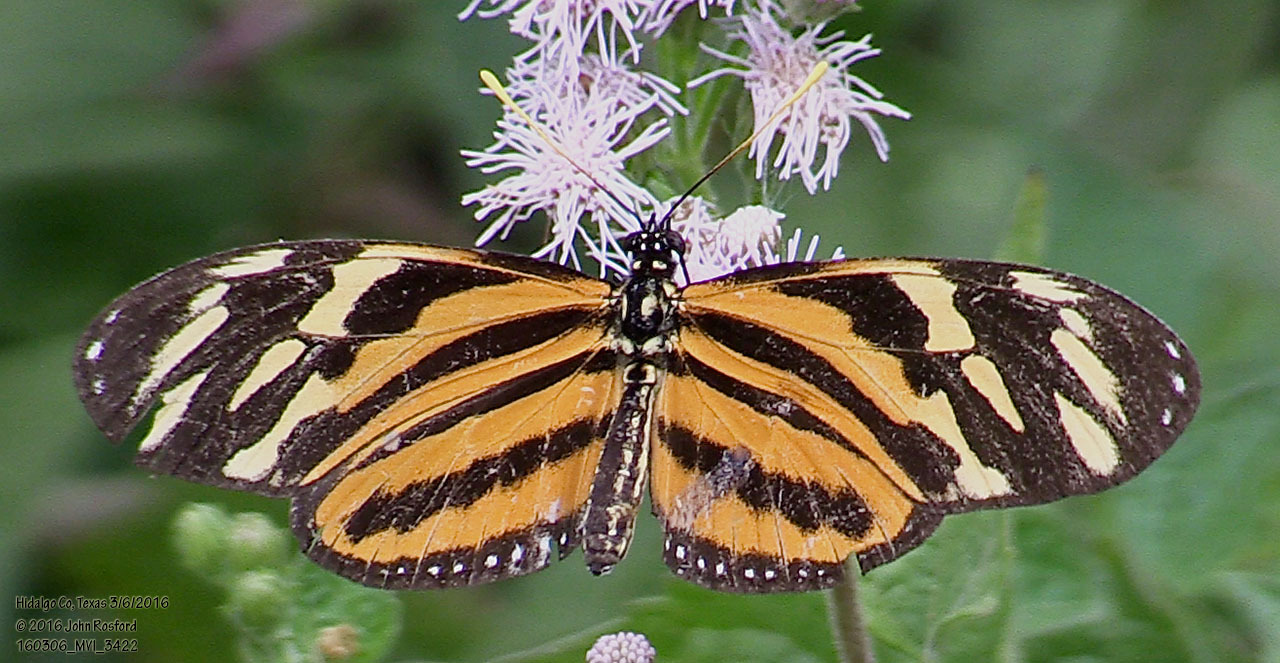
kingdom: Animalia
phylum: Arthropoda
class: Insecta
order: Lepidoptera
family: Nymphalidae
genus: Eueides
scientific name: Eueides isabella
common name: Isabella's longwing
